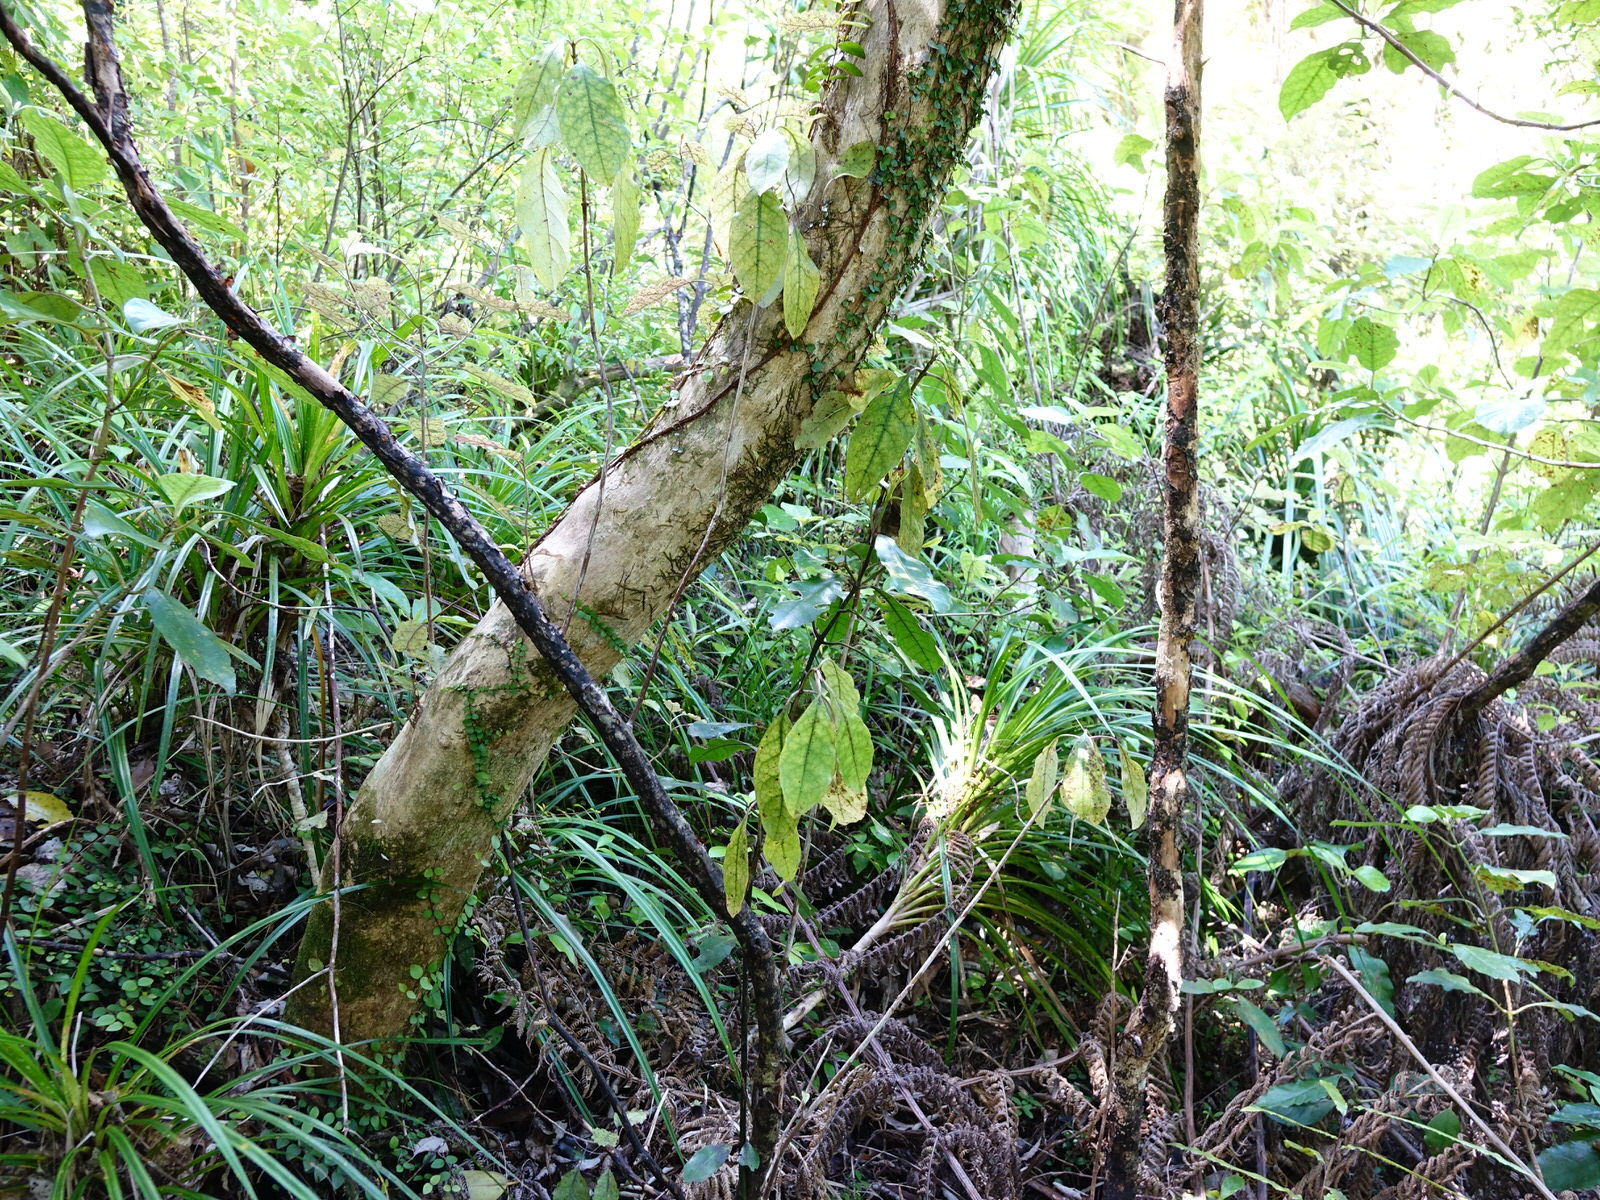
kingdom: Plantae
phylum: Tracheophyta
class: Magnoliopsida
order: Gentianales
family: Rubiaceae
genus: Coprosma
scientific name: Coprosma autumnalis
